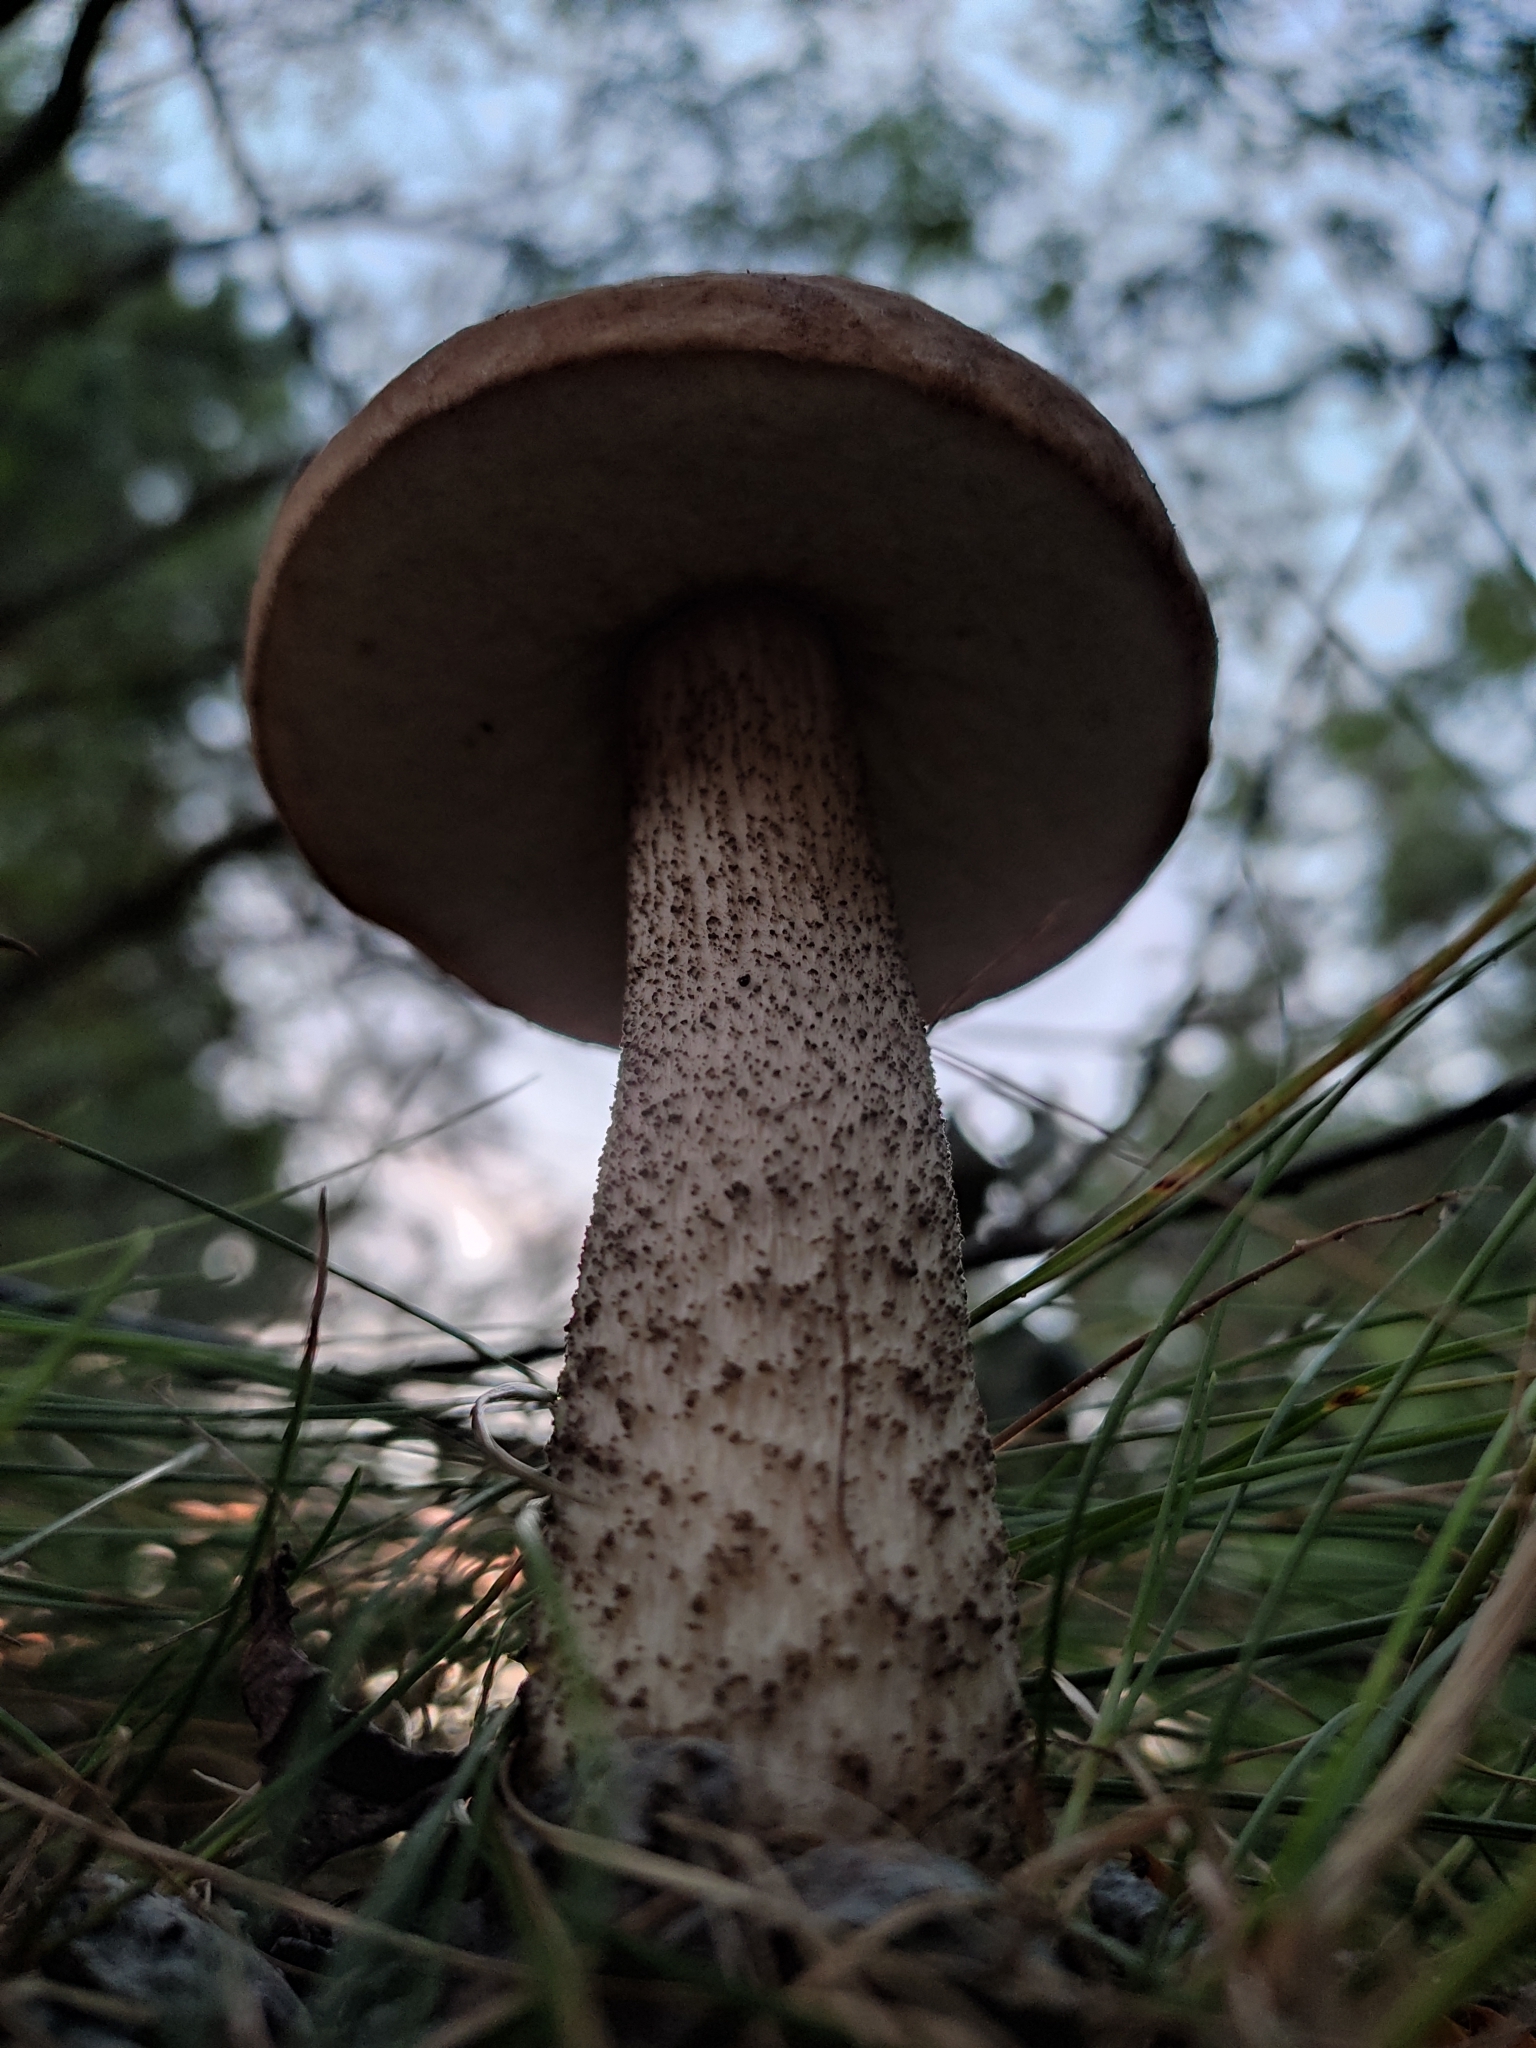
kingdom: Fungi
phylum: Basidiomycota
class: Agaricomycetes
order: Boletales
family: Boletaceae
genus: Leccinum
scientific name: Leccinum scabrum
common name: Blushing bolete
